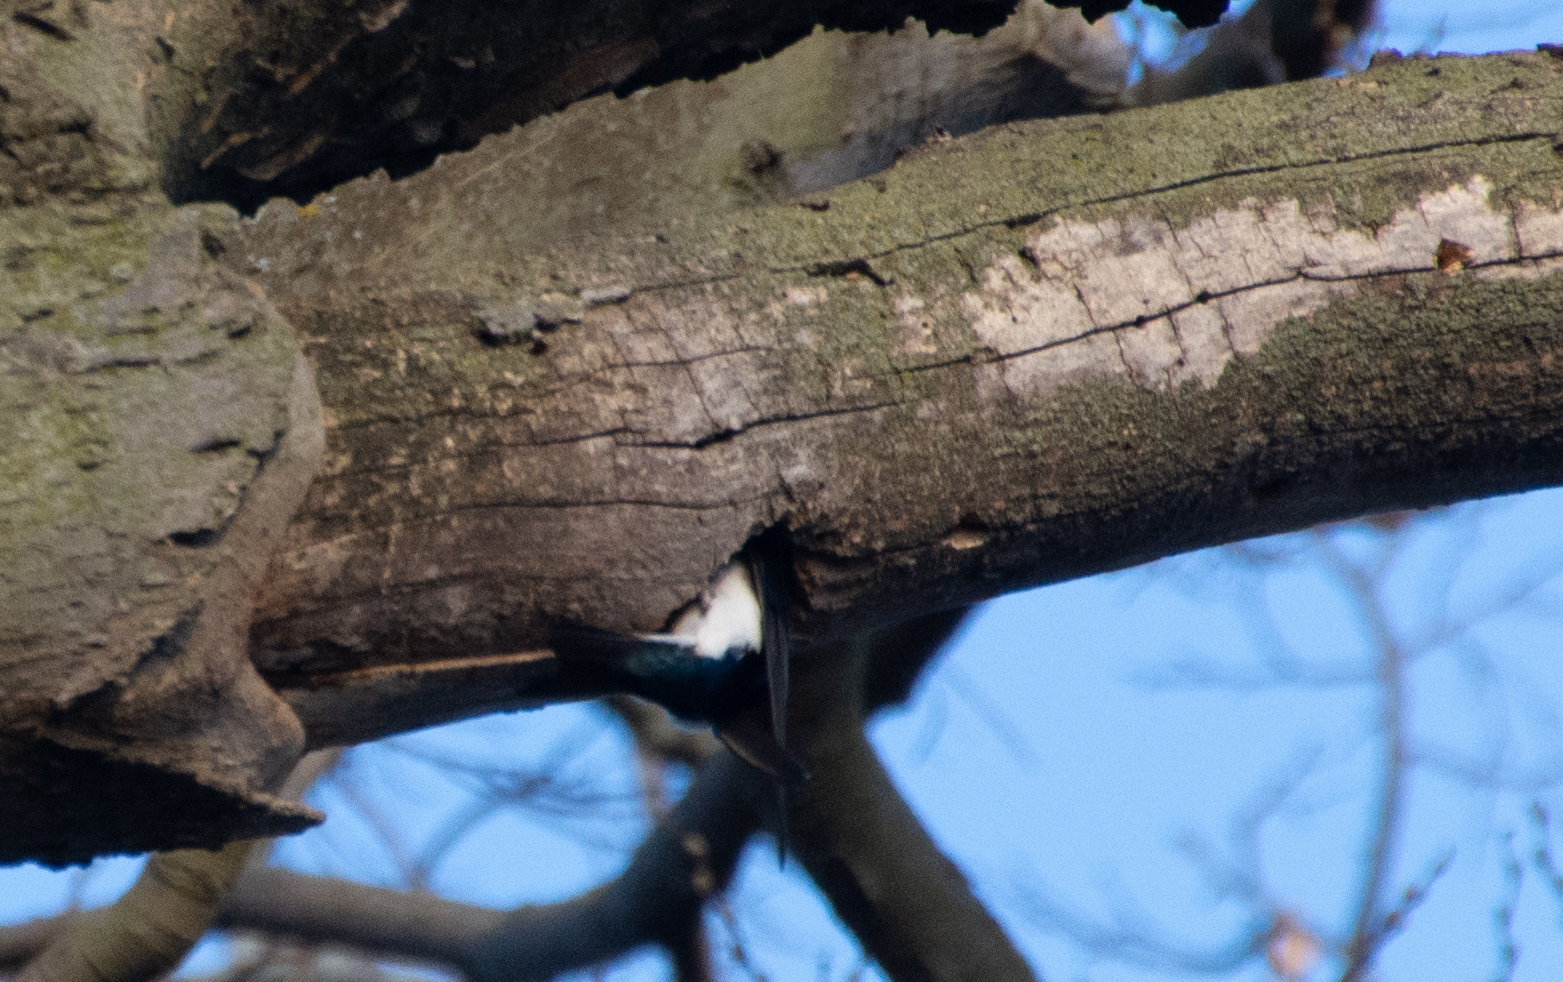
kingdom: Animalia
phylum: Chordata
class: Aves
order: Passeriformes
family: Hirundinidae
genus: Tachycineta
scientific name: Tachycineta bicolor
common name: Tree swallow
